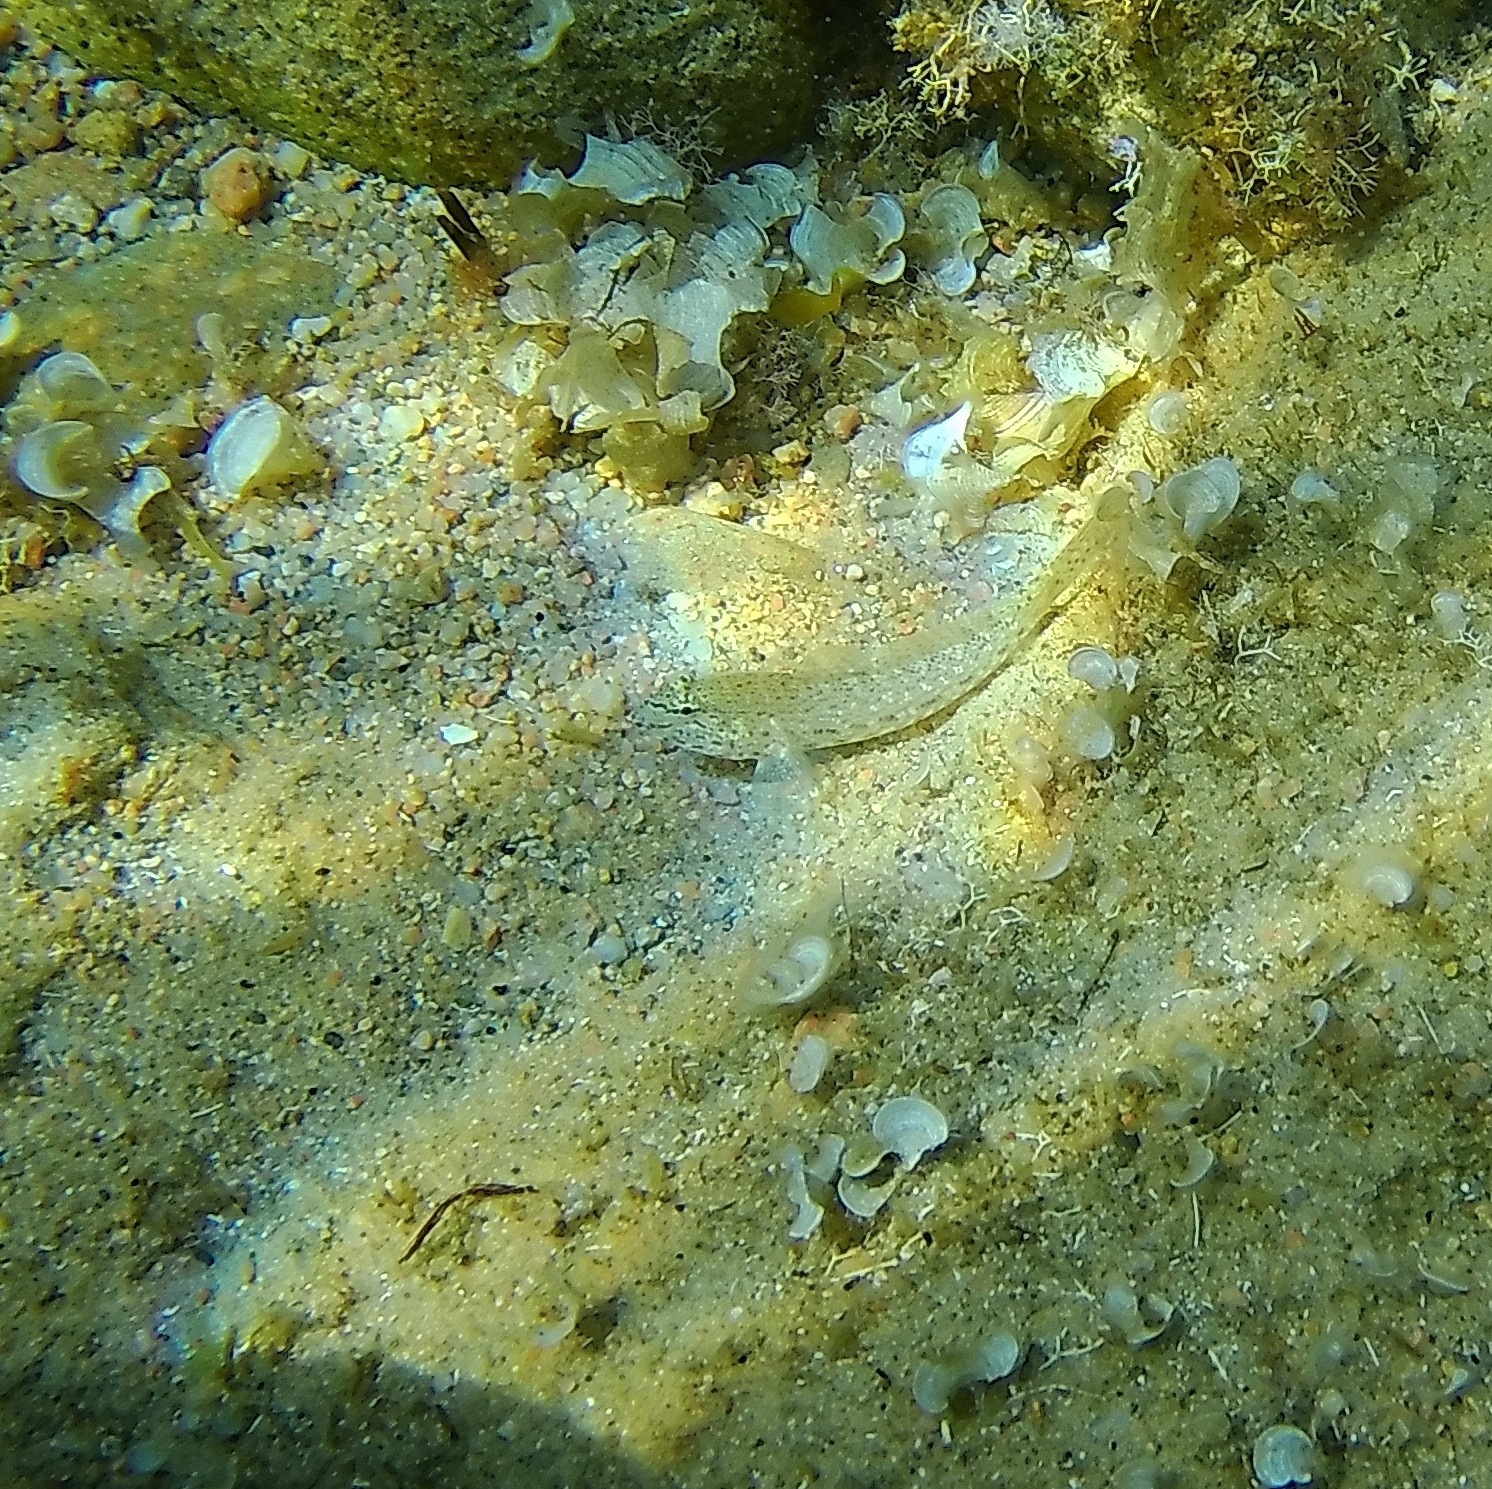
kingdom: Animalia
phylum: Chordata
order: Perciformes
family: Gobiidae
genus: Gobius
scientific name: Gobius incognitus
